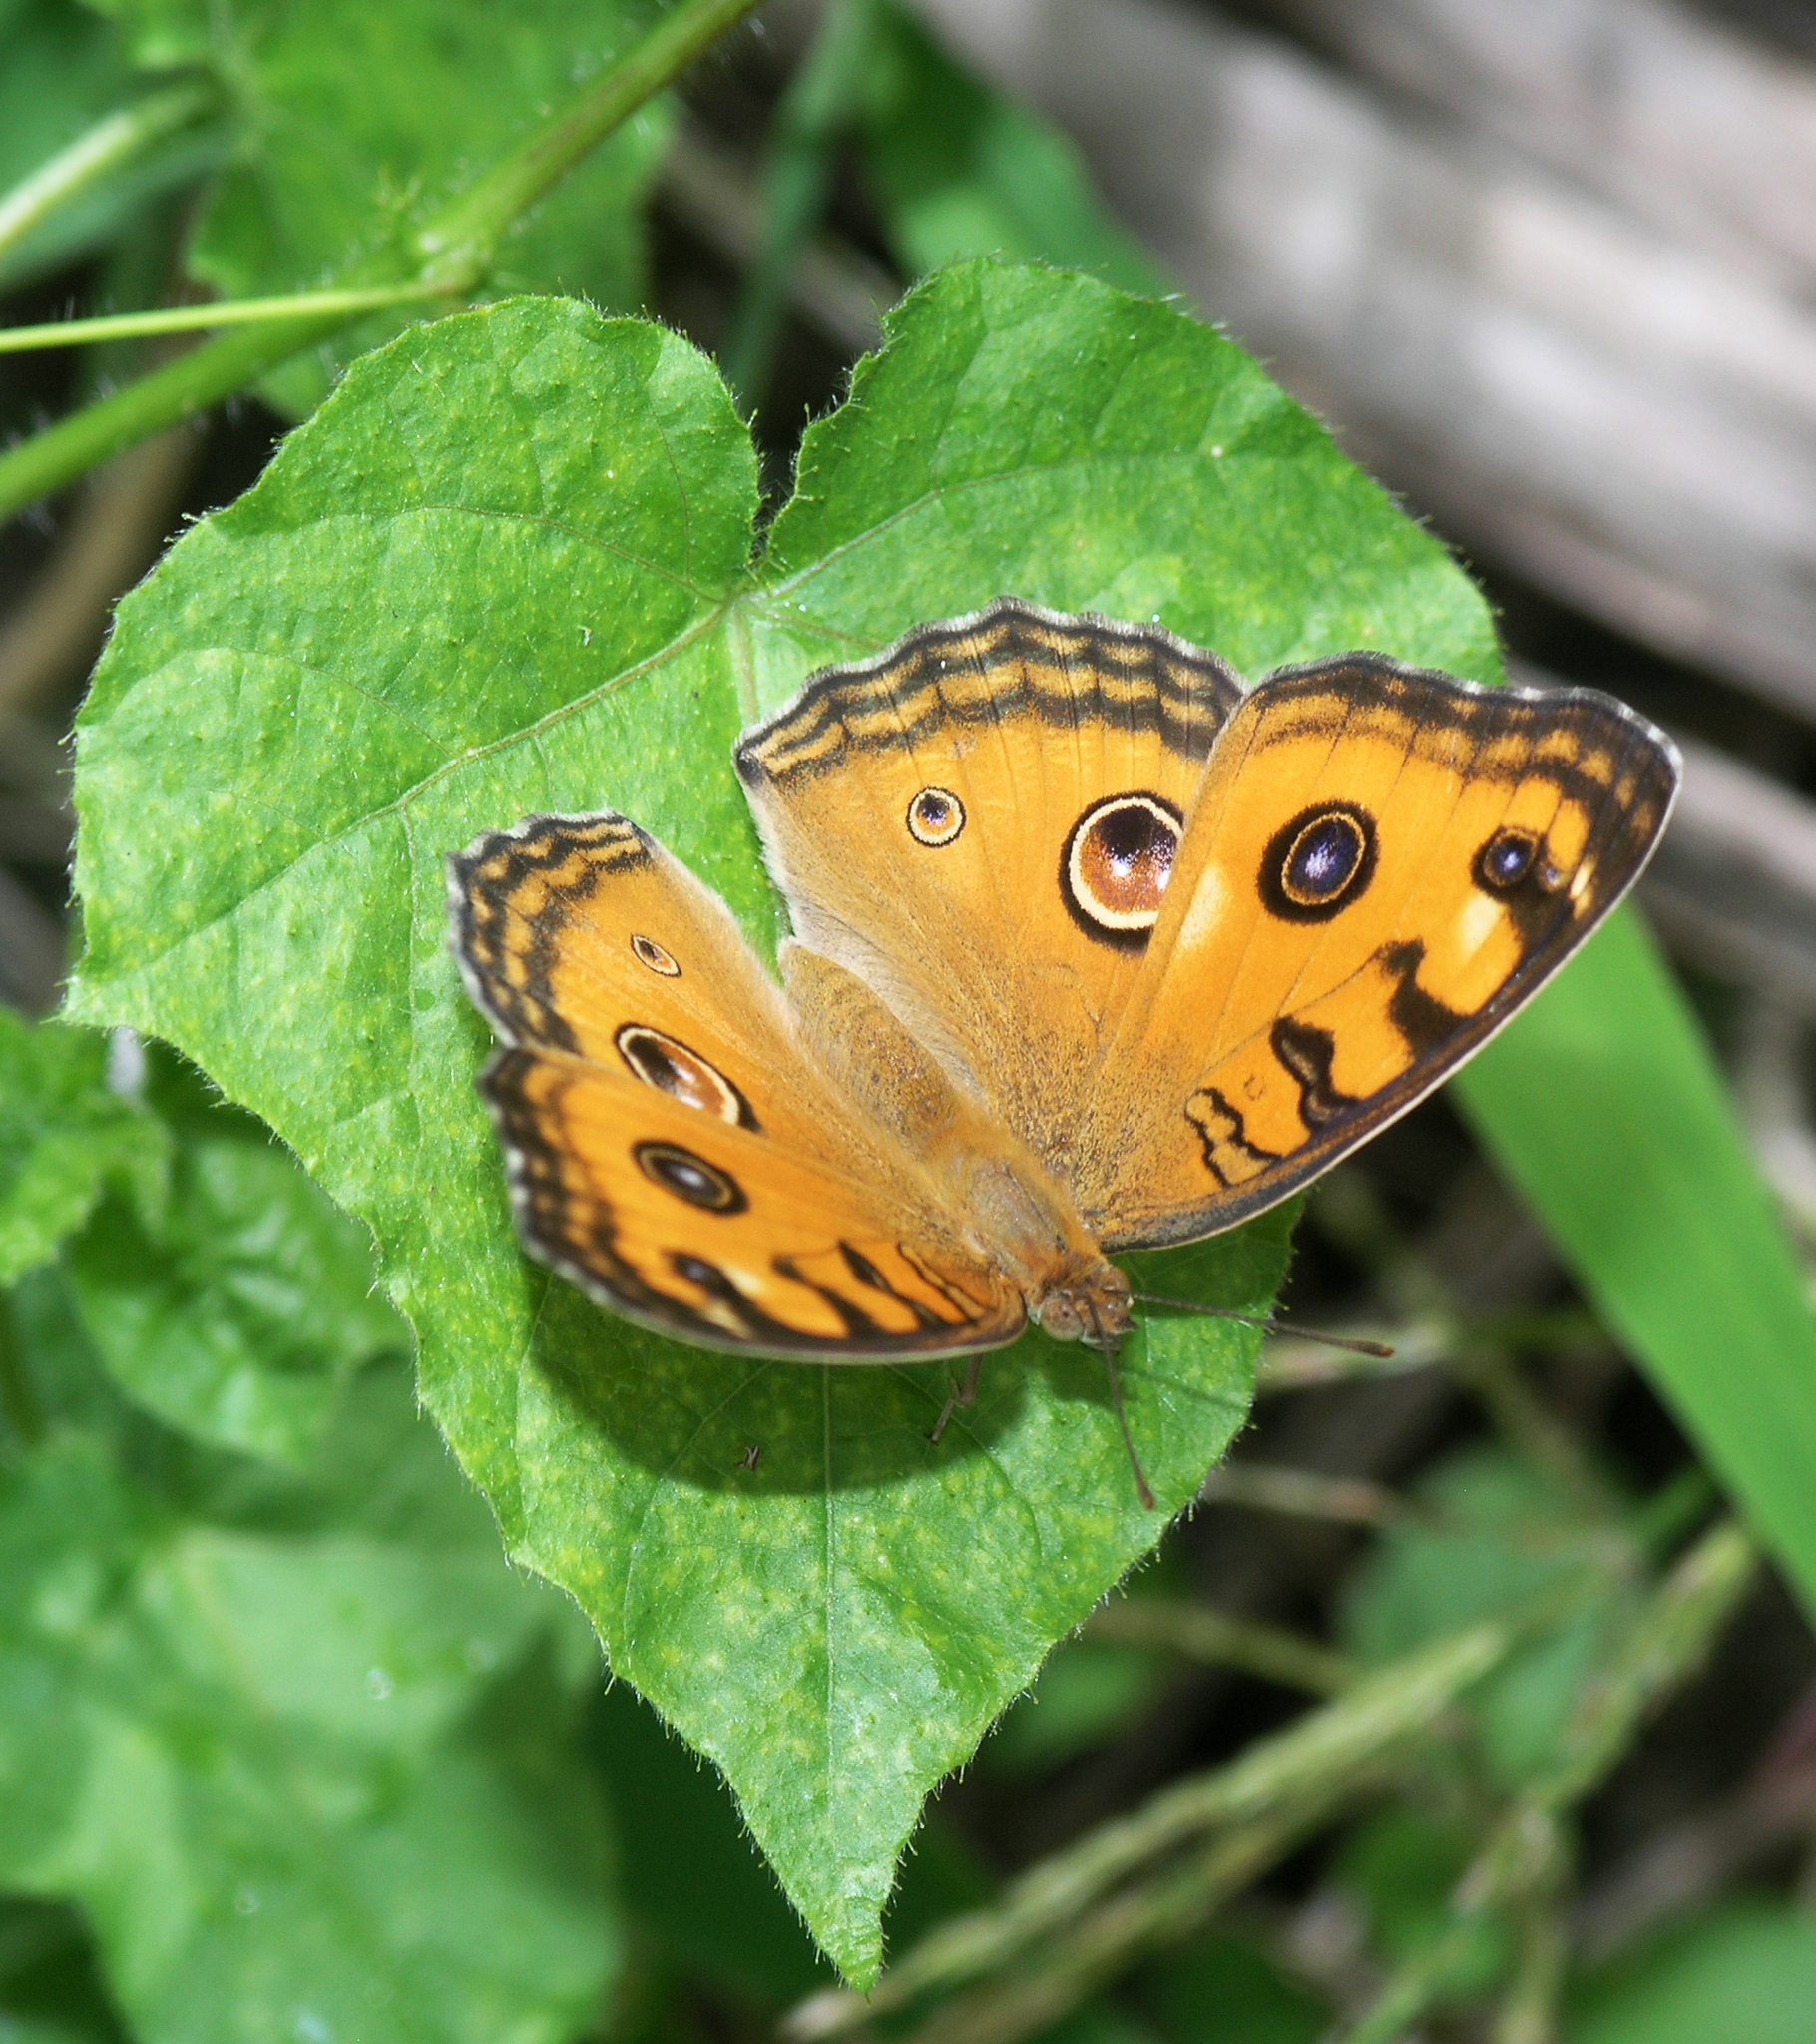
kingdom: Animalia
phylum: Arthropoda
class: Insecta
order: Lepidoptera
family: Nymphalidae
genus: Junonia
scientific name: Junonia almana
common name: Peacock pansy
